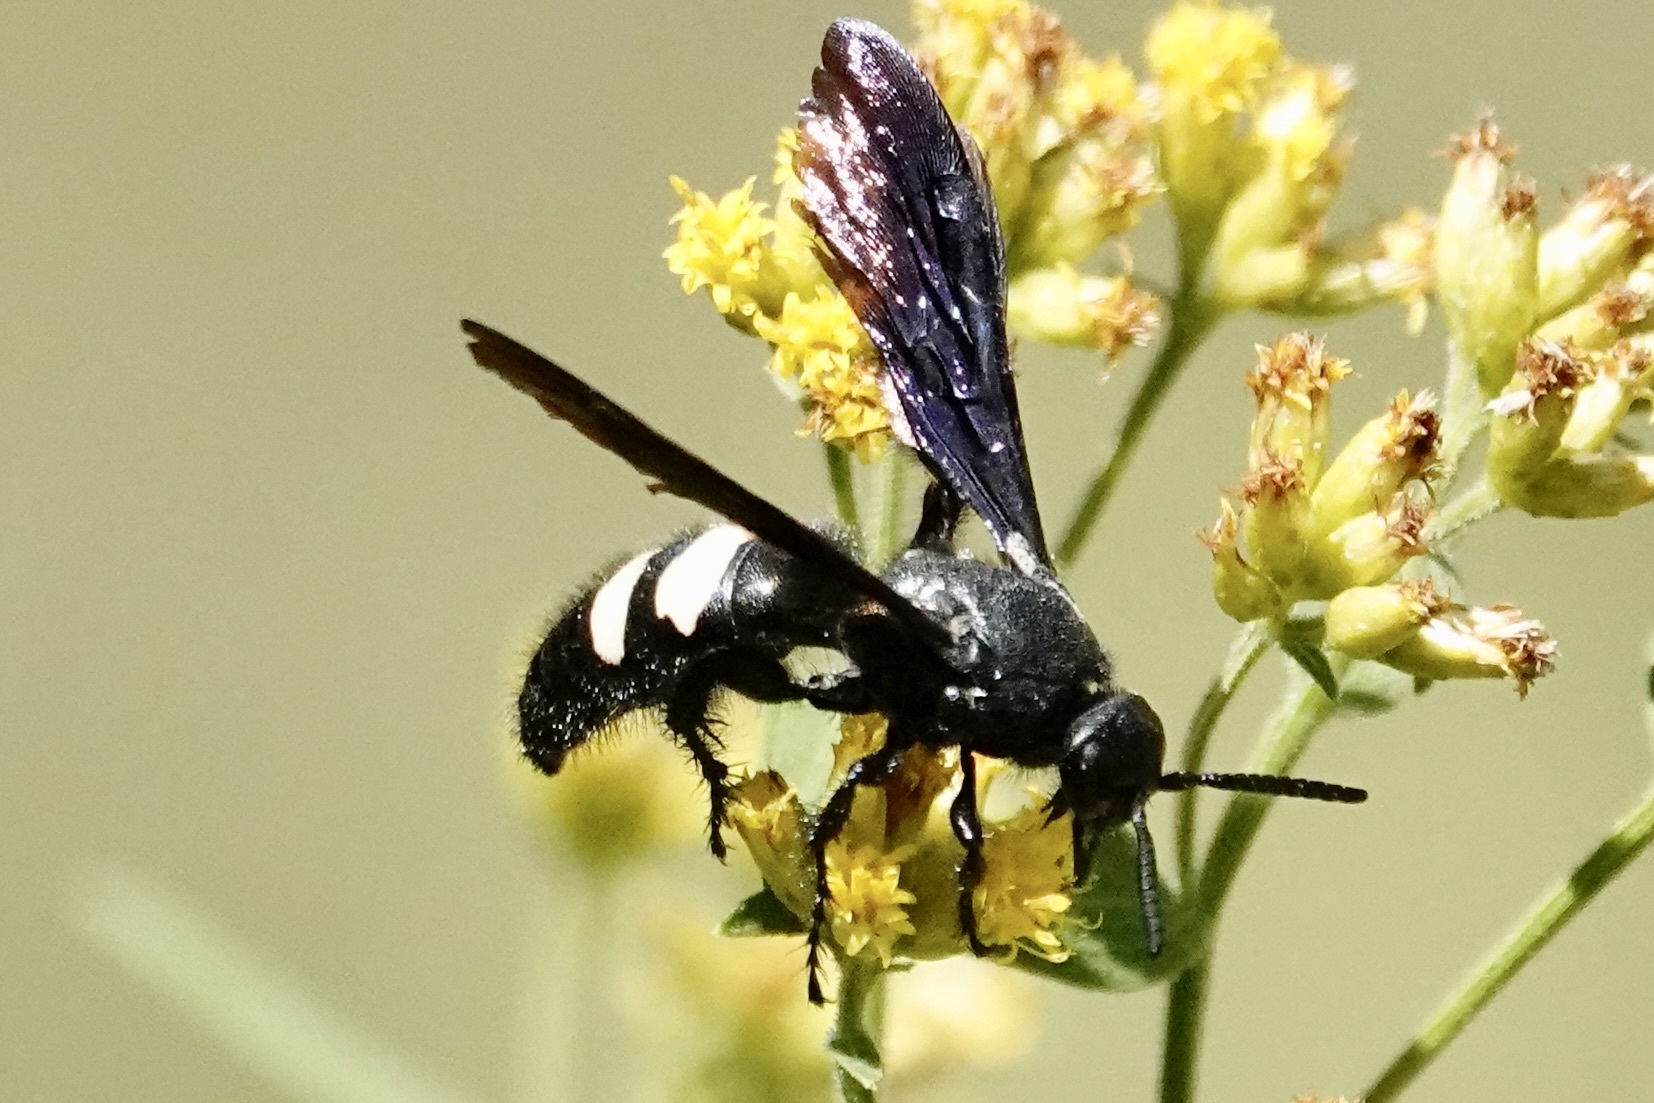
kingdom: Animalia
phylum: Arthropoda
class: Insecta
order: Hymenoptera
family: Scoliidae
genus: Scolia
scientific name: Scolia bicincta
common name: Double-banded scoliid wasp
